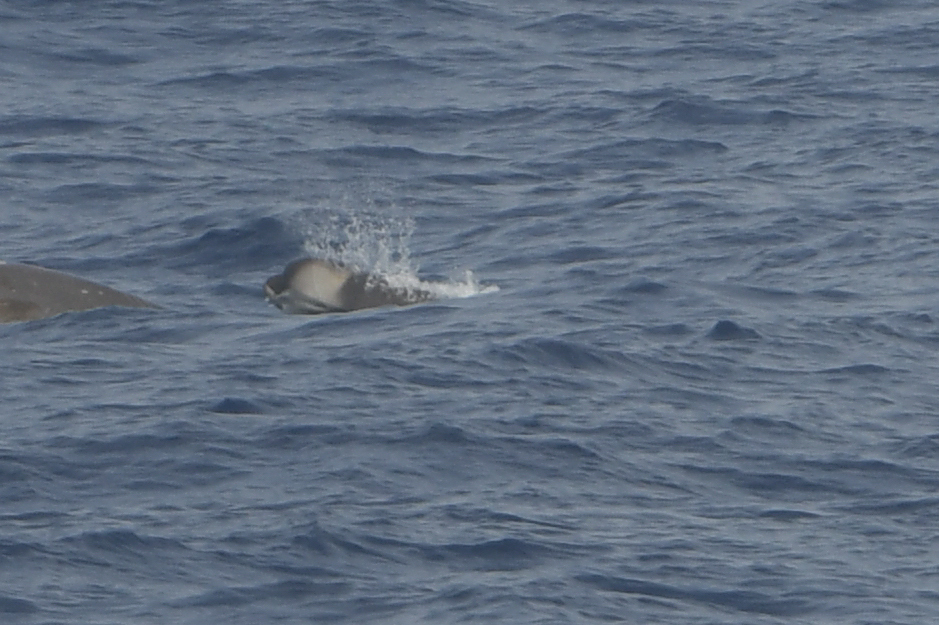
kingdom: Animalia
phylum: Chordata
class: Mammalia
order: Cetacea
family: Hyperoodontidae
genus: Hyperoodon
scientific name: Hyperoodon planifrons
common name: Southern bottlenose whale
